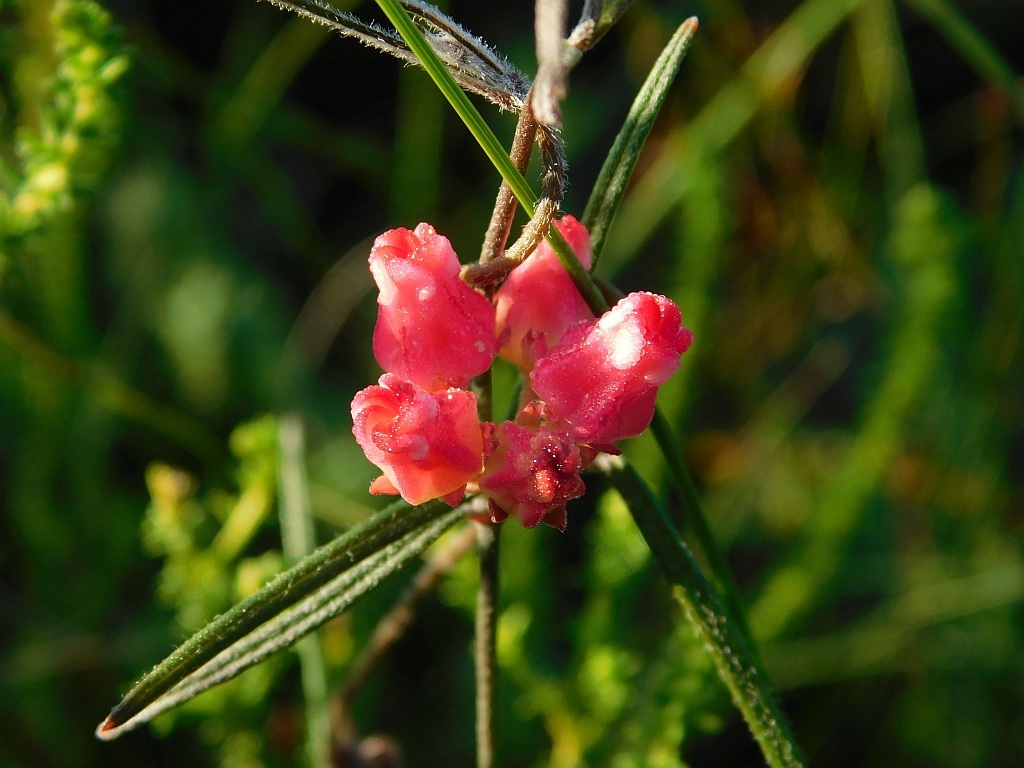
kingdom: Plantae
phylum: Tracheophyta
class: Magnoliopsida
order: Gentianales
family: Apocynaceae
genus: Microloma
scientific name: Microloma tenuifolium
